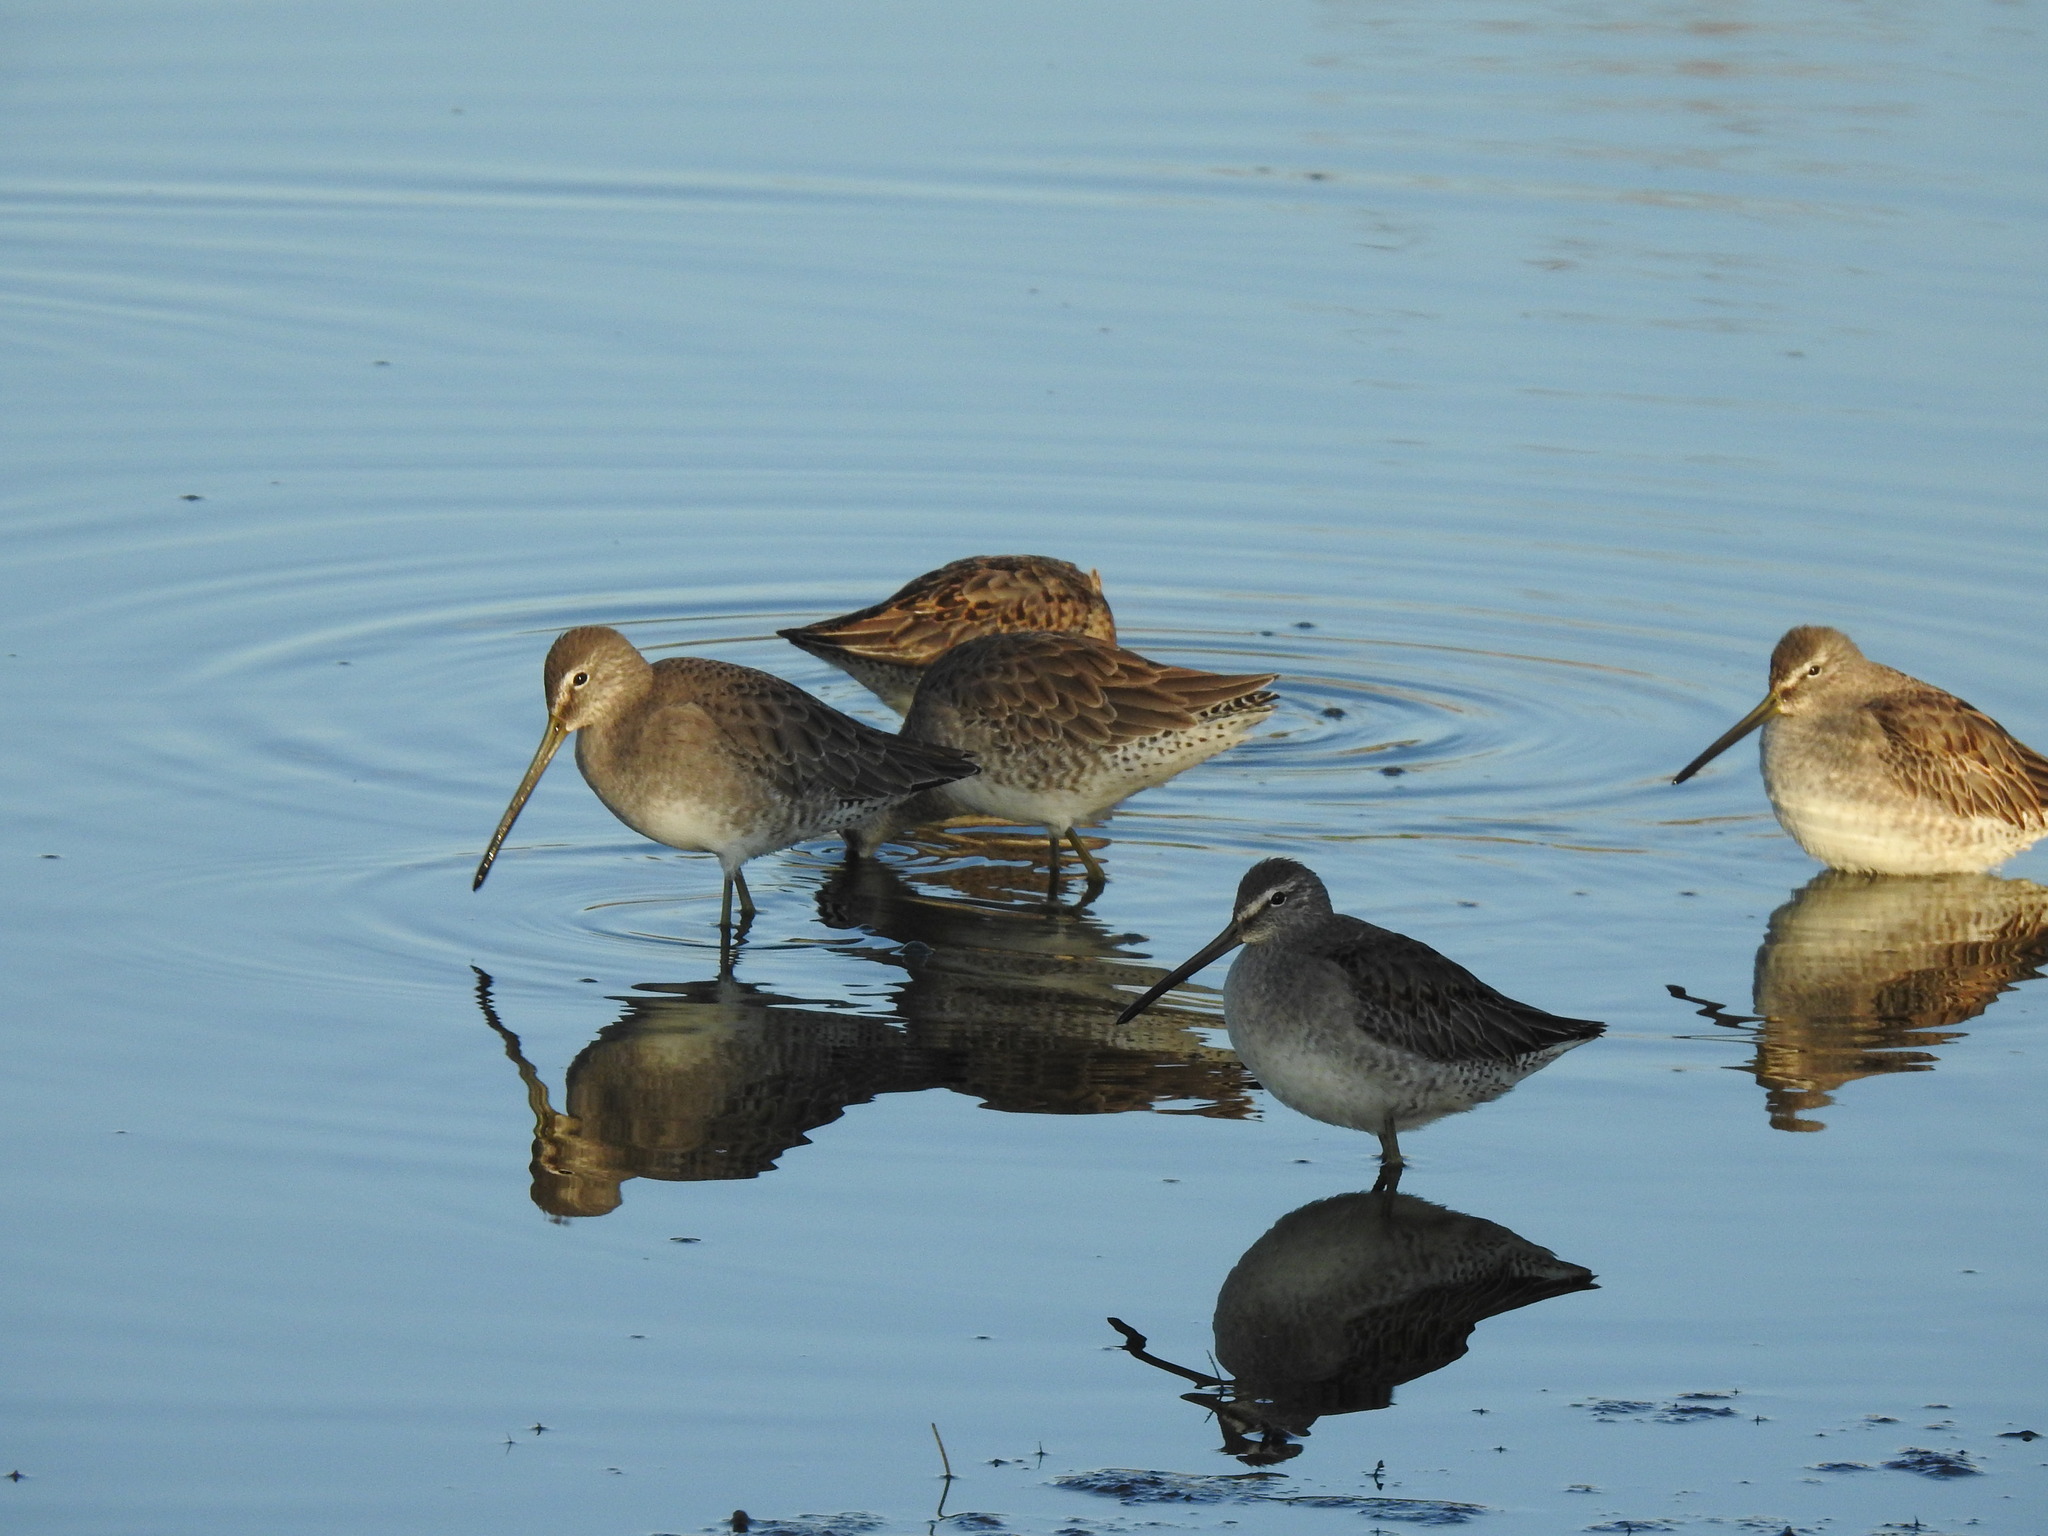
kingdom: Animalia
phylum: Chordata
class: Aves
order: Charadriiformes
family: Scolopacidae
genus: Limnodromus
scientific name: Limnodromus scolopaceus
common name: Long-billed dowitcher
